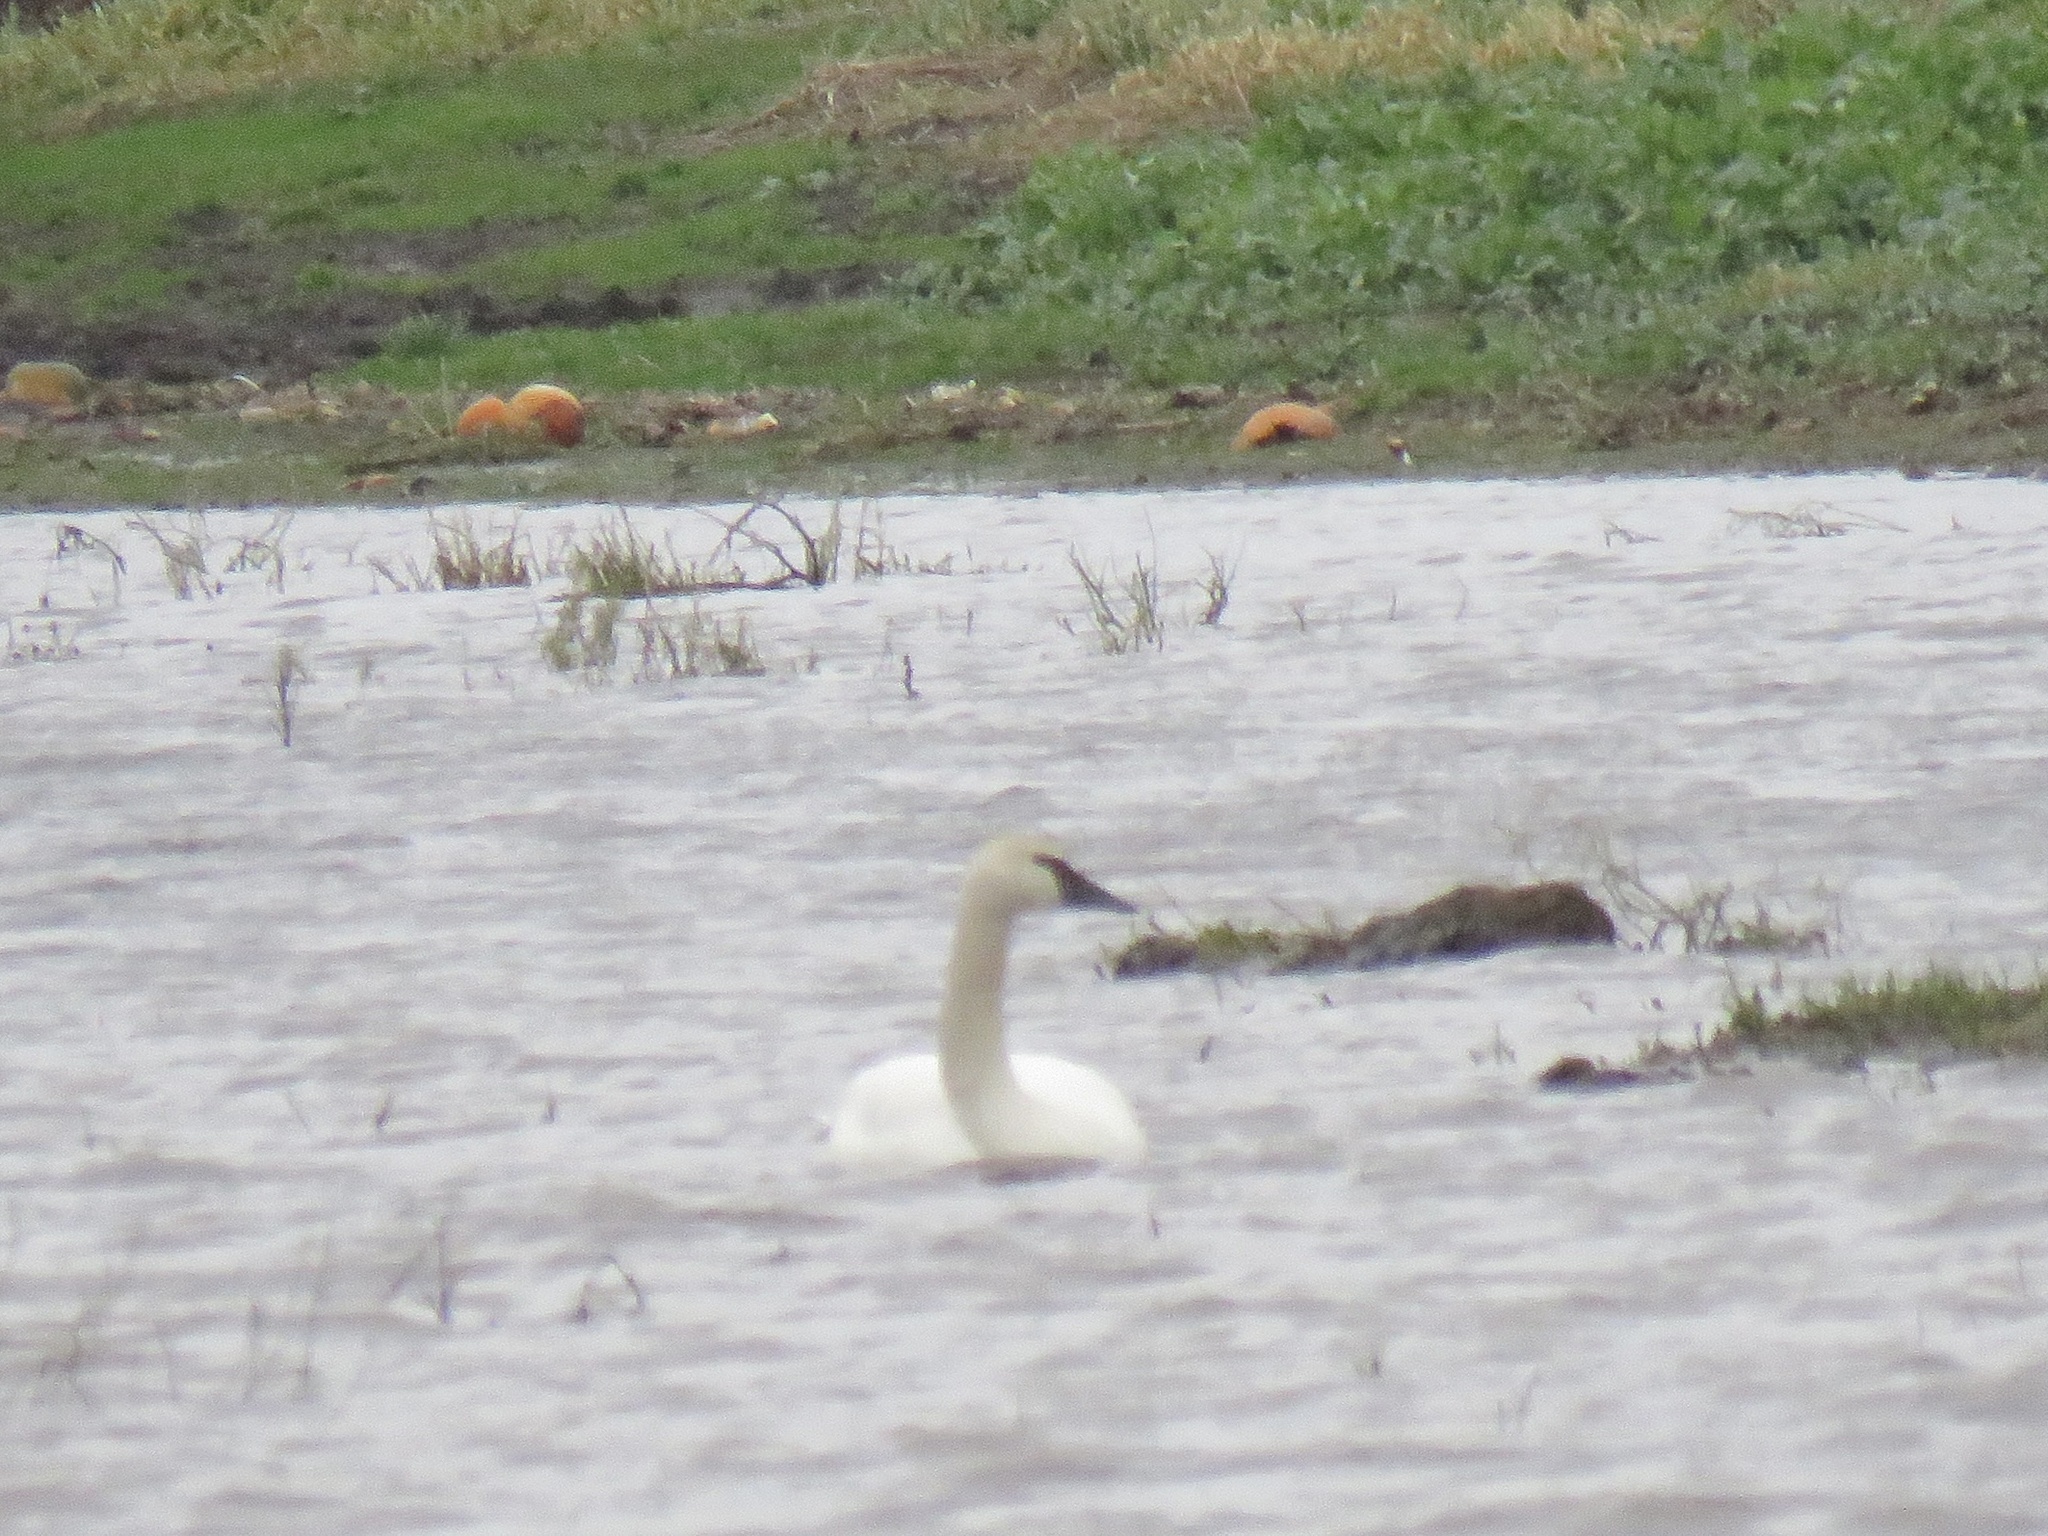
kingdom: Animalia
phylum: Chordata
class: Aves
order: Anseriformes
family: Anatidae
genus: Cygnus
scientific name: Cygnus buccinator
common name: Trumpeter swan
